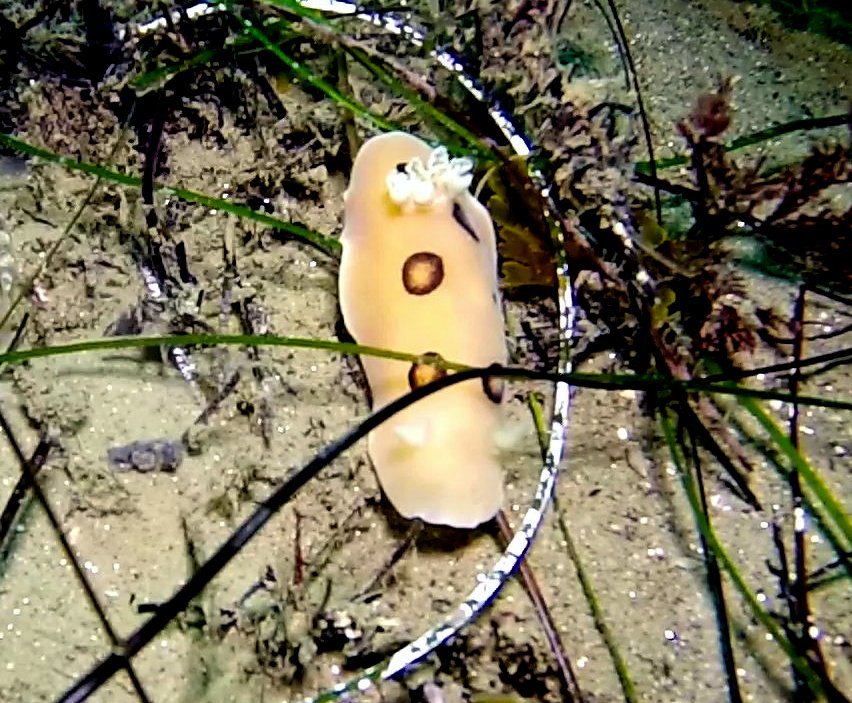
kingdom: Animalia
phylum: Mollusca
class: Gastropoda
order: Nudibranchia
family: Discodorididae
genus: Diaulula
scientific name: Diaulula sandiegensis
